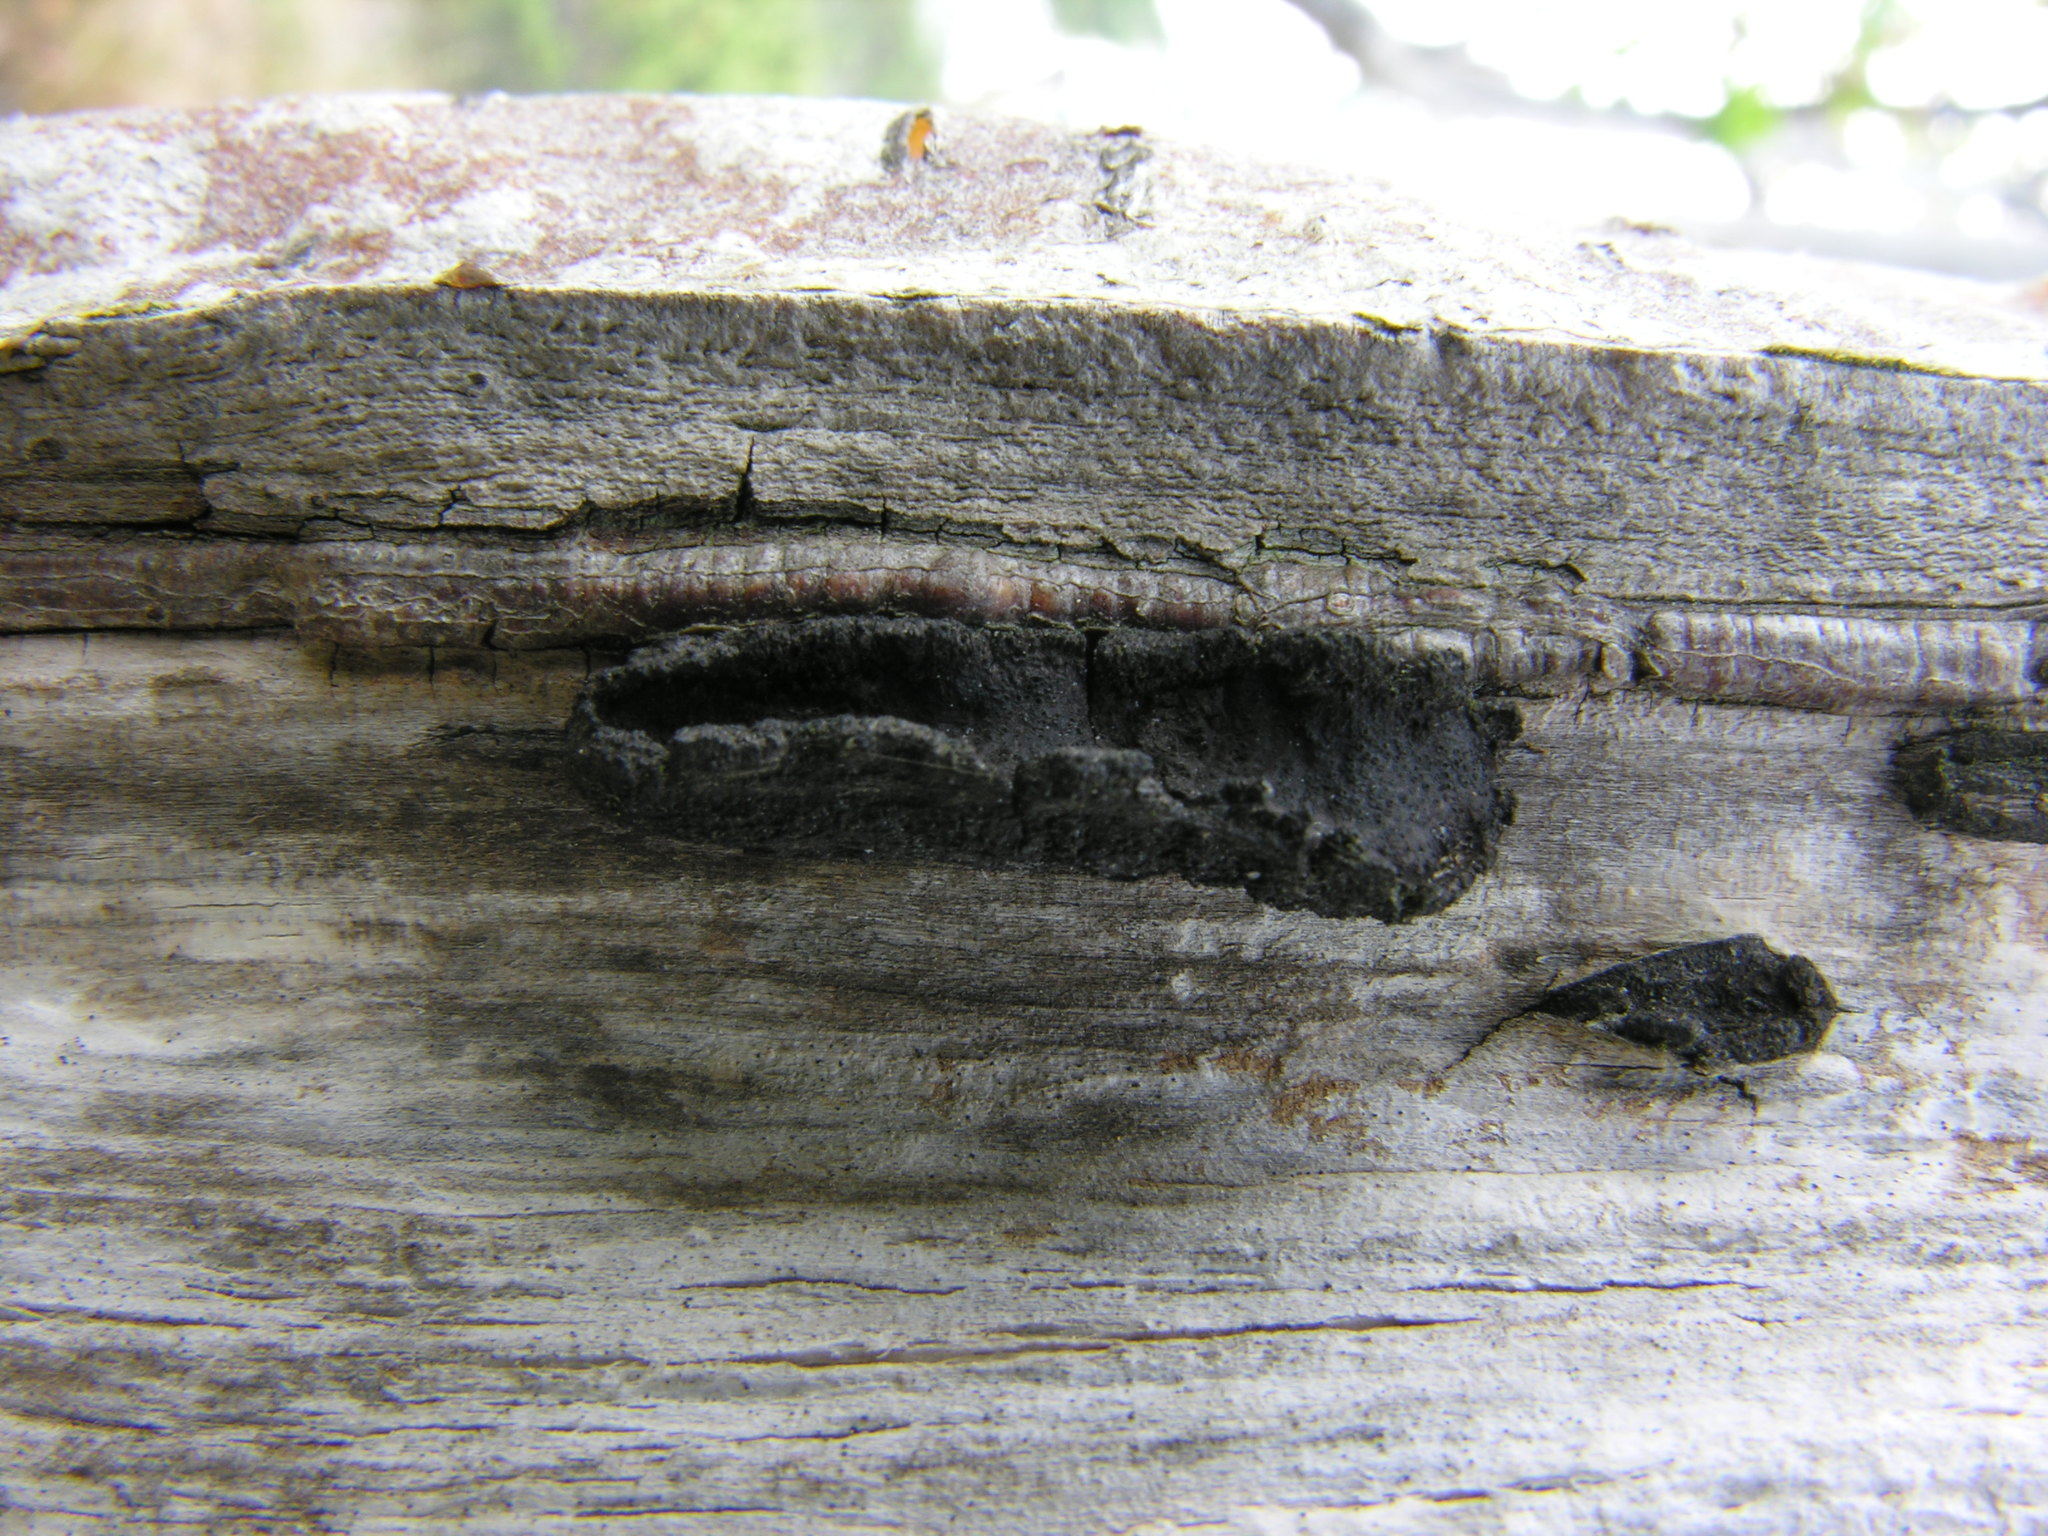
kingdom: Fungi
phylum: Ascomycota
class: Sordariomycetes
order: Xylariales
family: Graphostromataceae
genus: Biscogniauxia
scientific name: Biscogniauxia repanda
